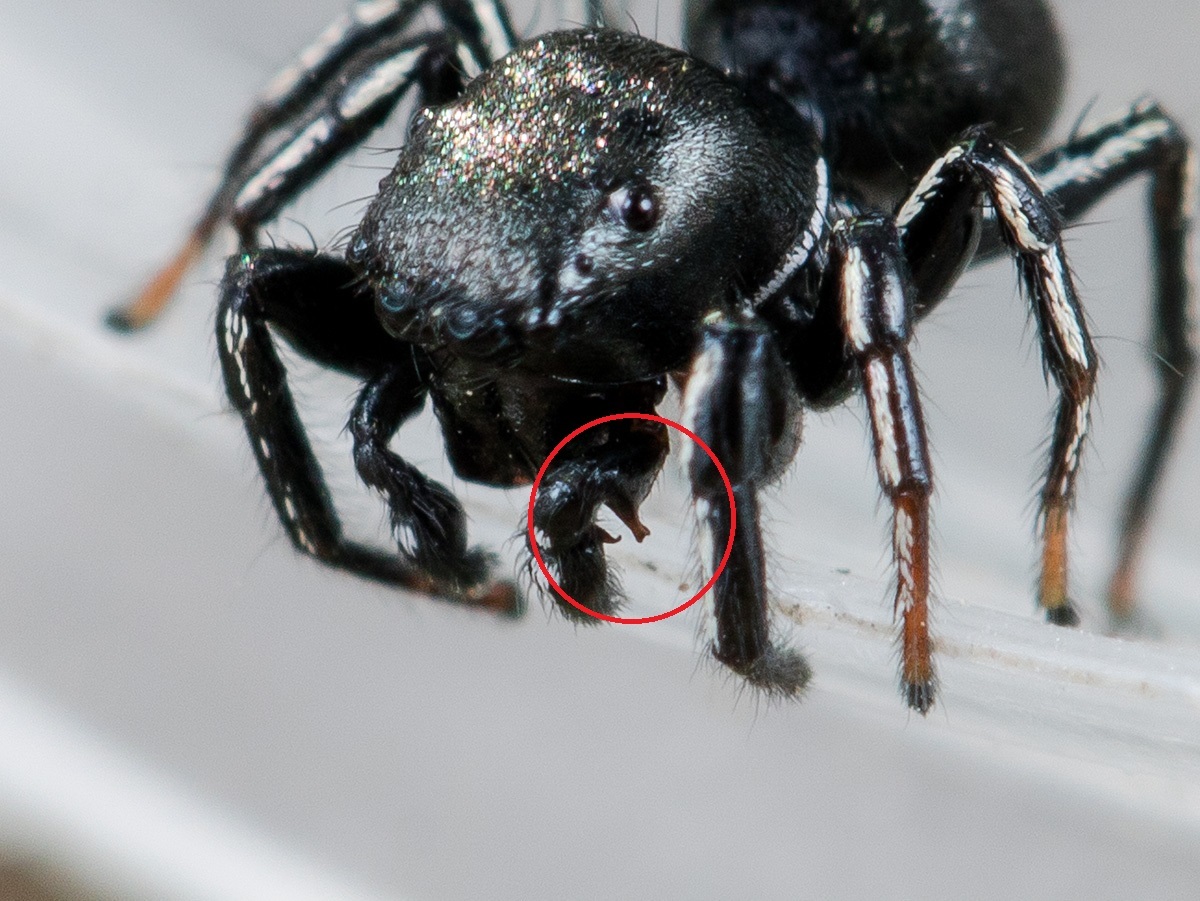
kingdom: Animalia
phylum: Arthropoda
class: Arachnida
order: Araneae
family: Salticidae
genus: Heliophanus
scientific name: Heliophanus chovdensis
